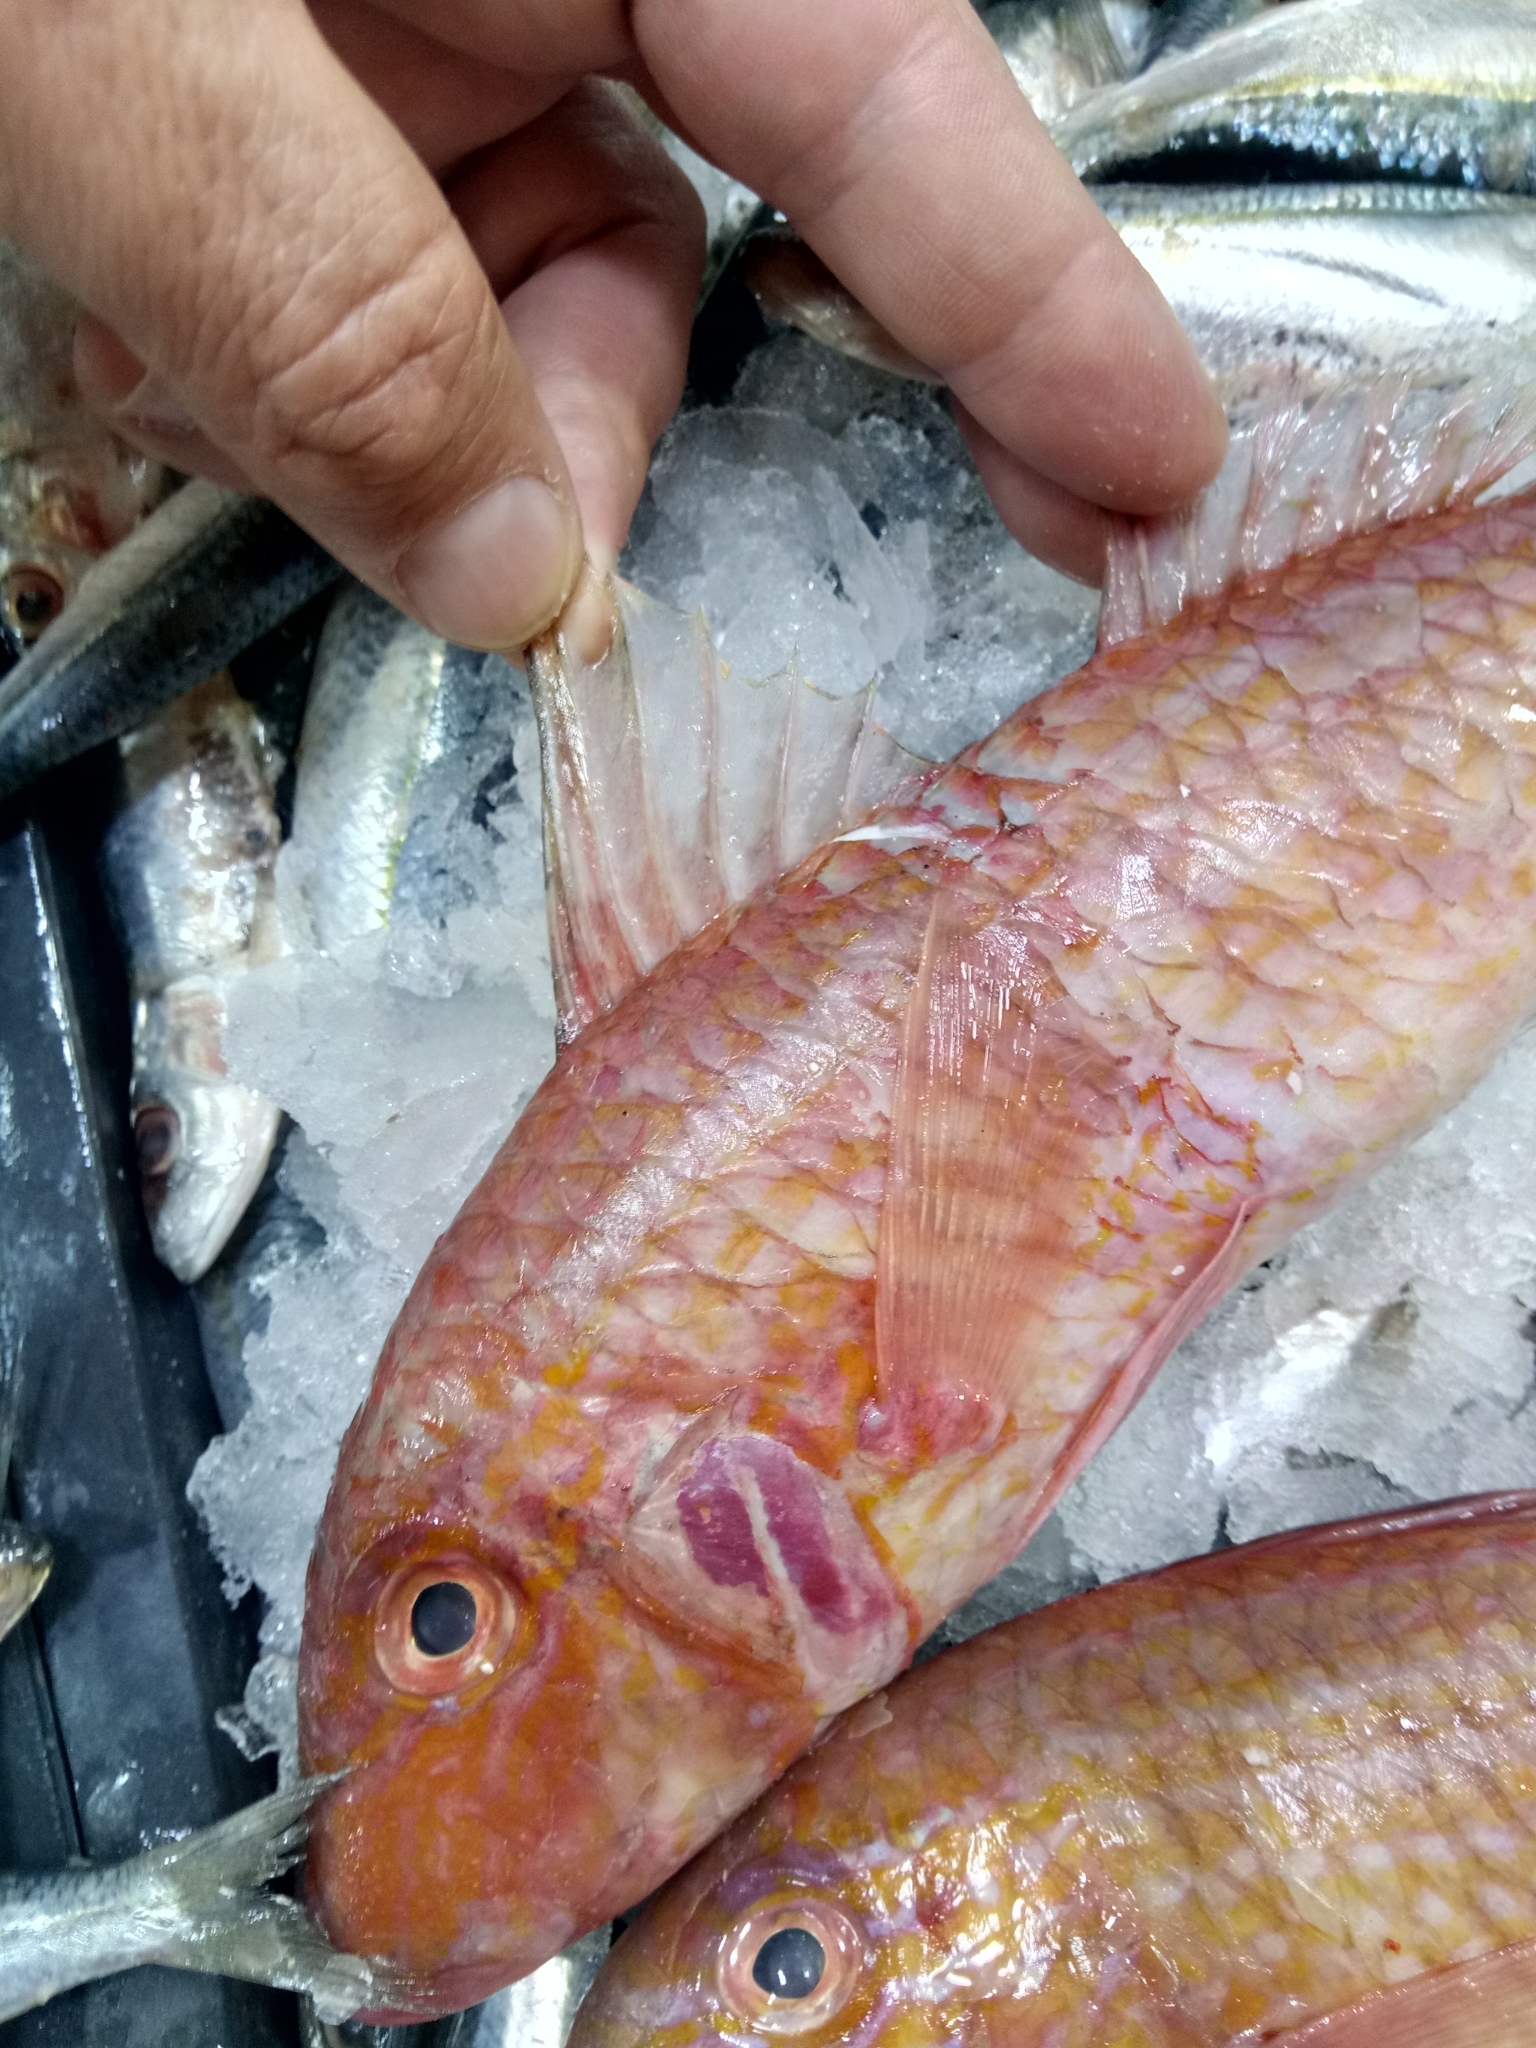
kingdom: Animalia
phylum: Chordata
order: Perciformes
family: Mullidae
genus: Pseudupeneus
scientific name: Pseudupeneus prayensis
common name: West african goatfish
